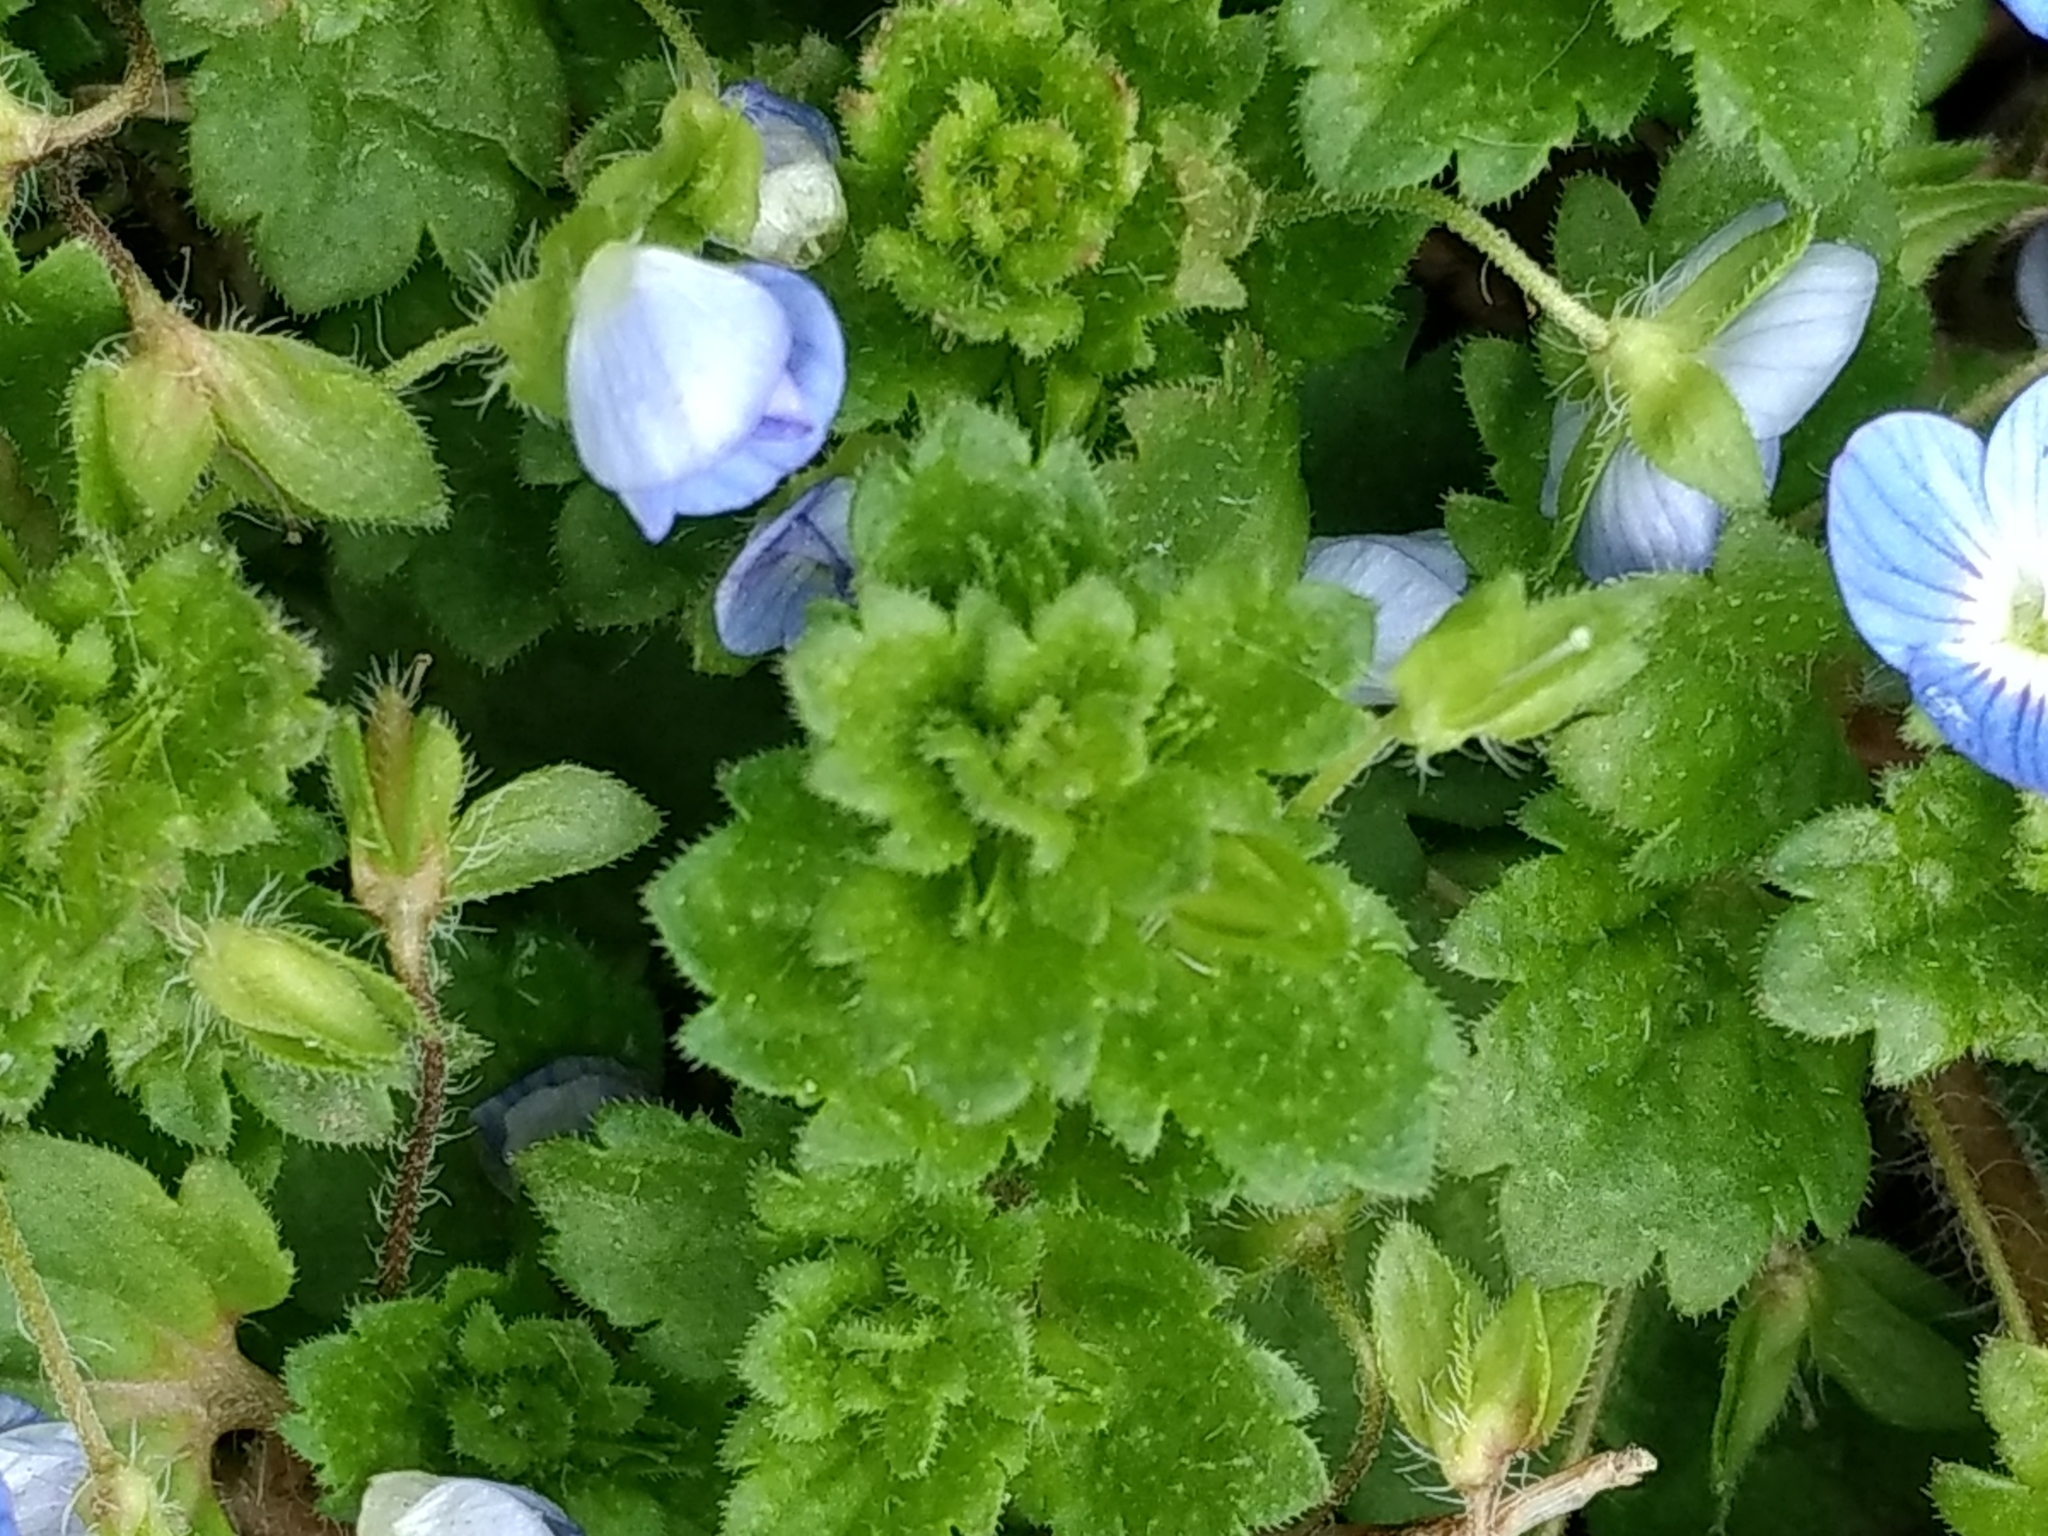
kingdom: Plantae
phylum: Tracheophyta
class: Magnoliopsida
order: Lamiales
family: Plantaginaceae
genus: Veronica
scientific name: Veronica persica
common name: Common field-speedwell
